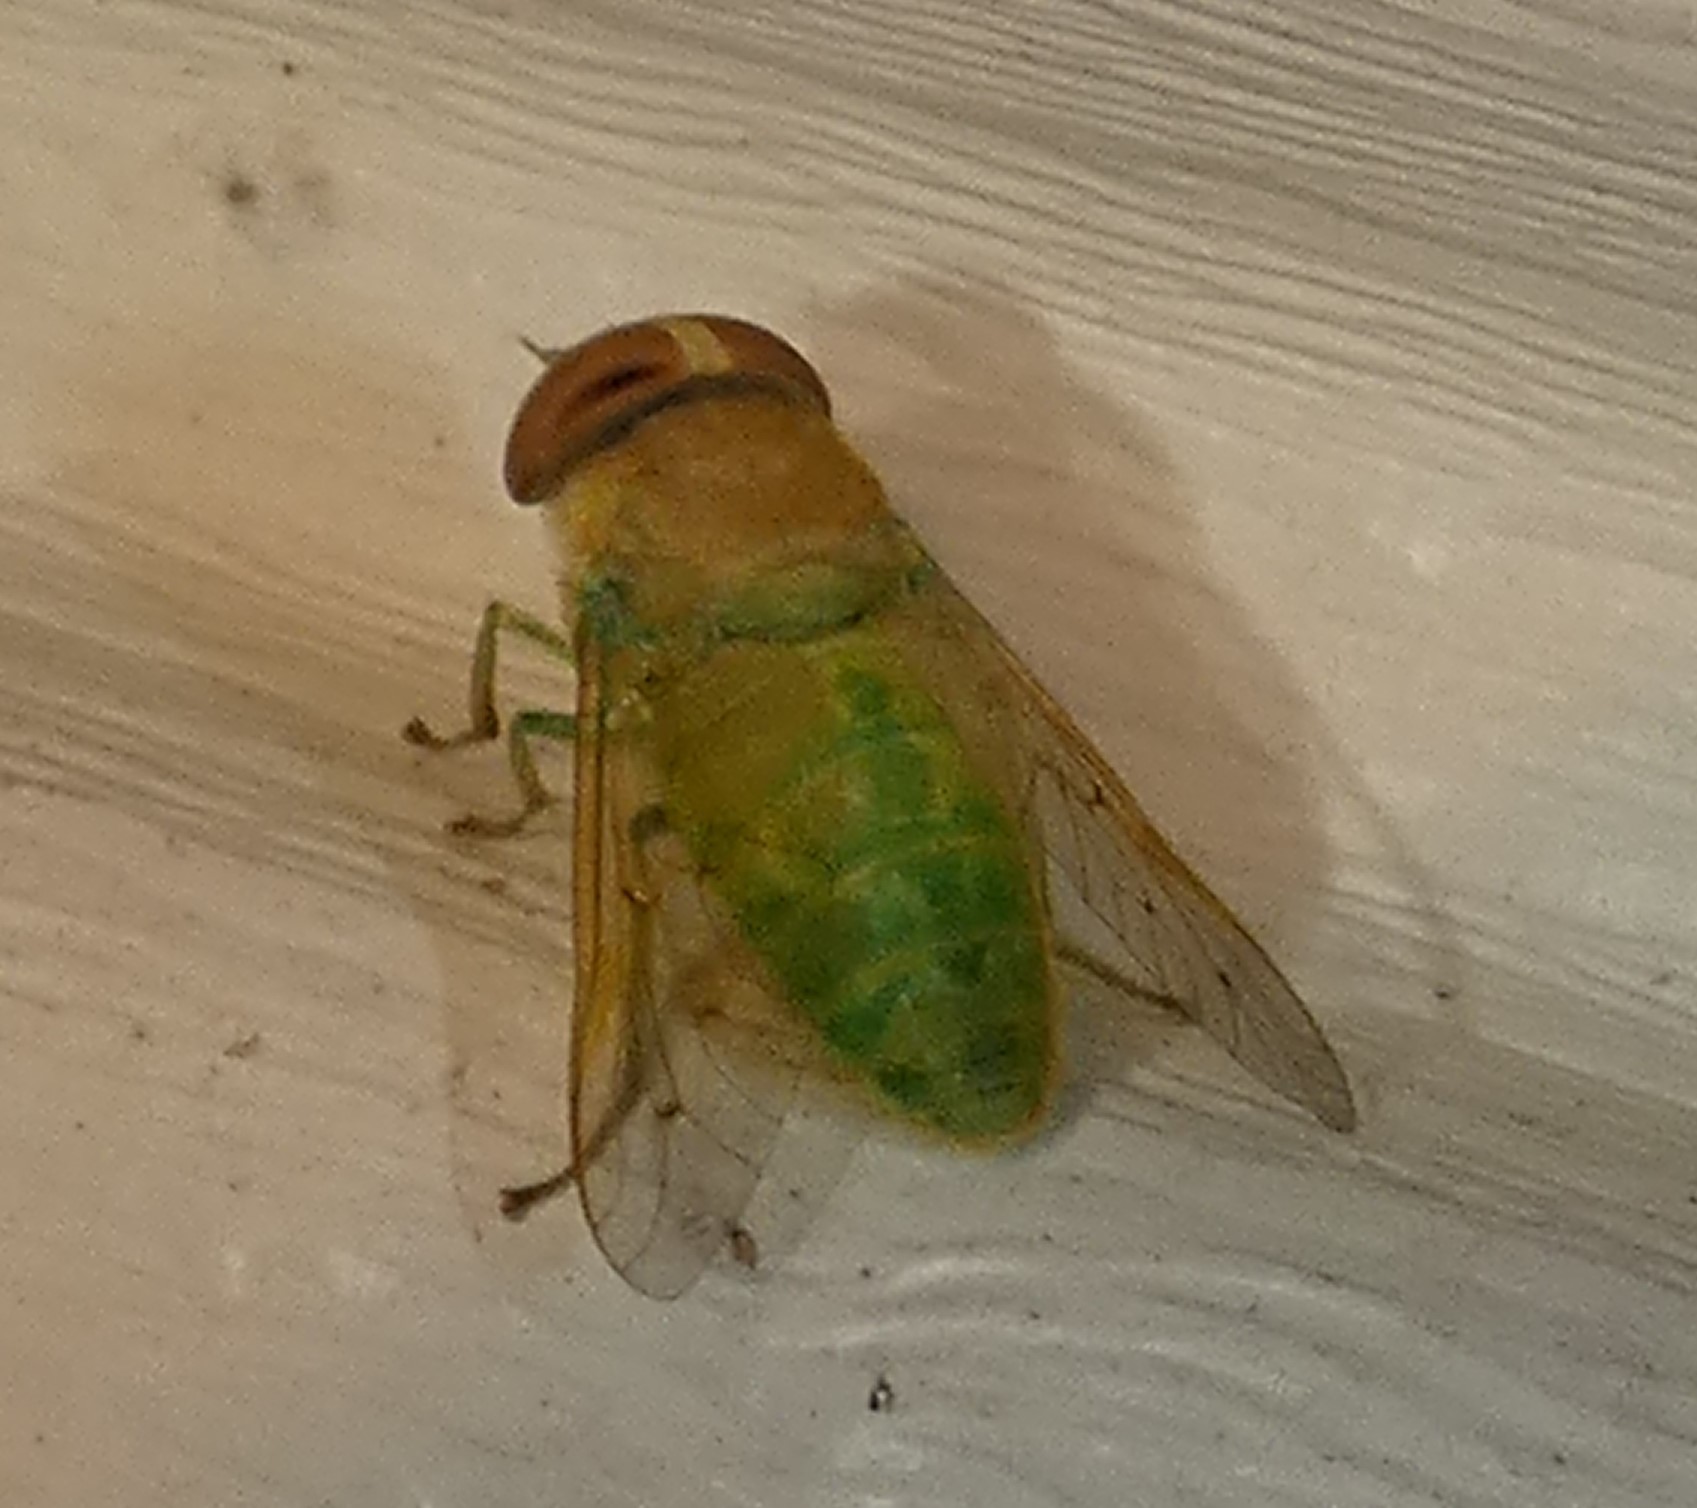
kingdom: Animalia
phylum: Arthropoda
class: Insecta
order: Diptera
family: Tabanidae
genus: Chlorotabanus
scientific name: Chlorotabanus crepuscularis
